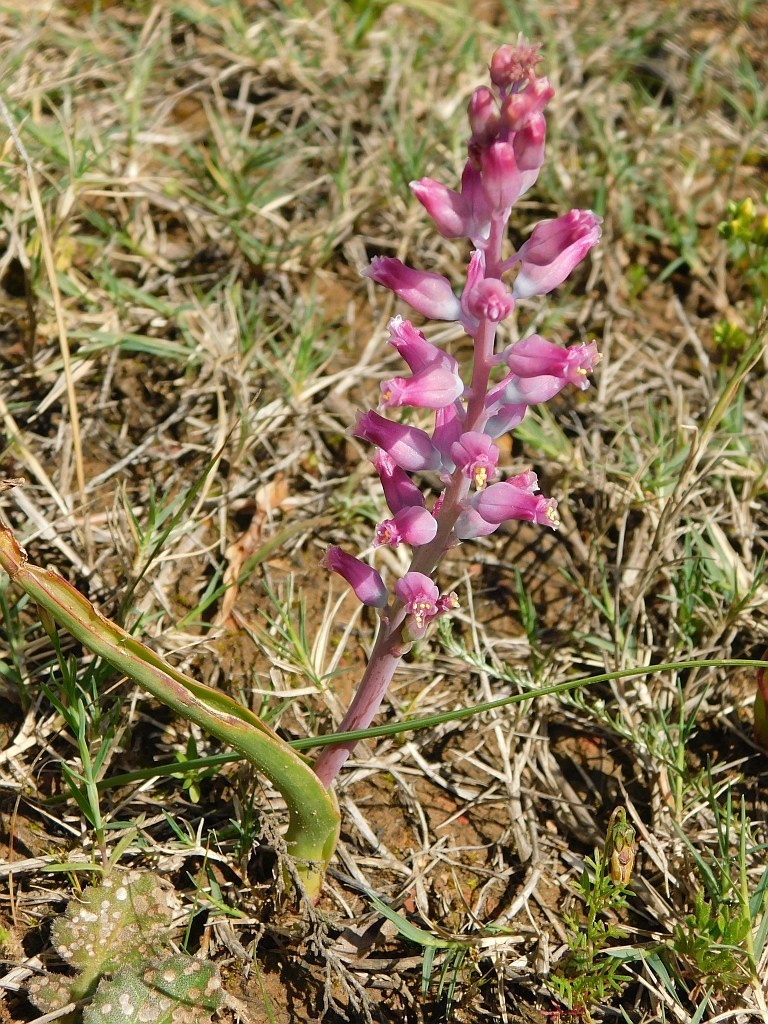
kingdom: Plantae
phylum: Tracheophyta
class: Liliopsida
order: Asparagales
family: Asparagaceae
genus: Lachenalia
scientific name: Lachenalia rosea
